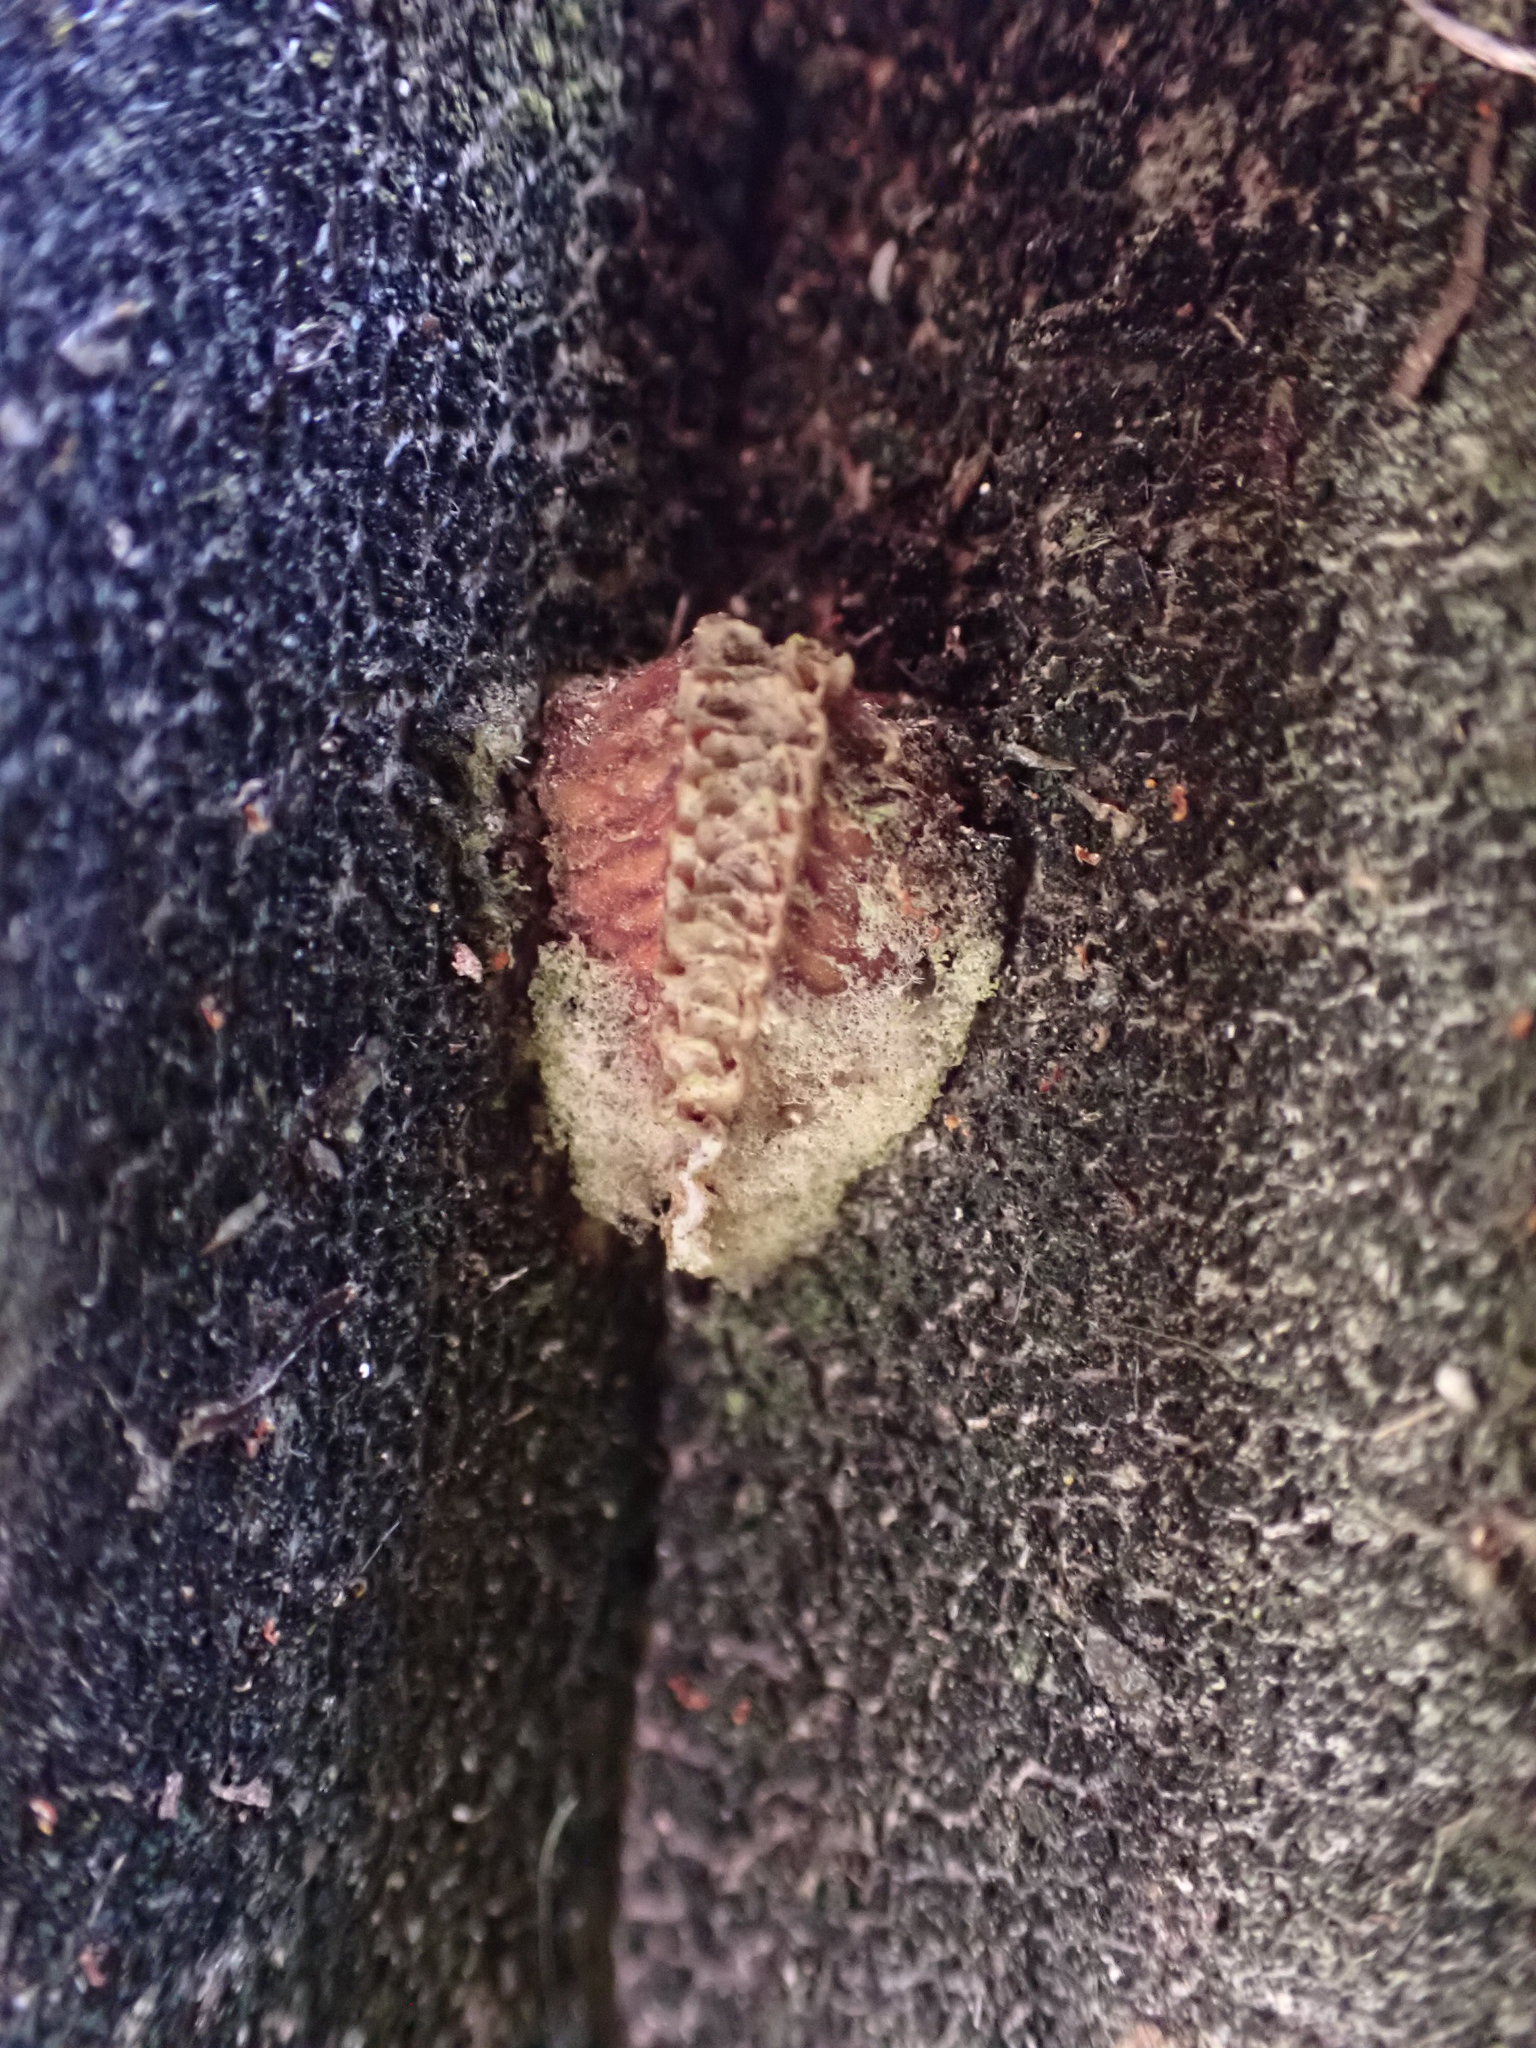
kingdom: Animalia
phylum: Arthropoda
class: Insecta
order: Mantodea
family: Miomantidae
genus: Miomantis
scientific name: Miomantis caffra
